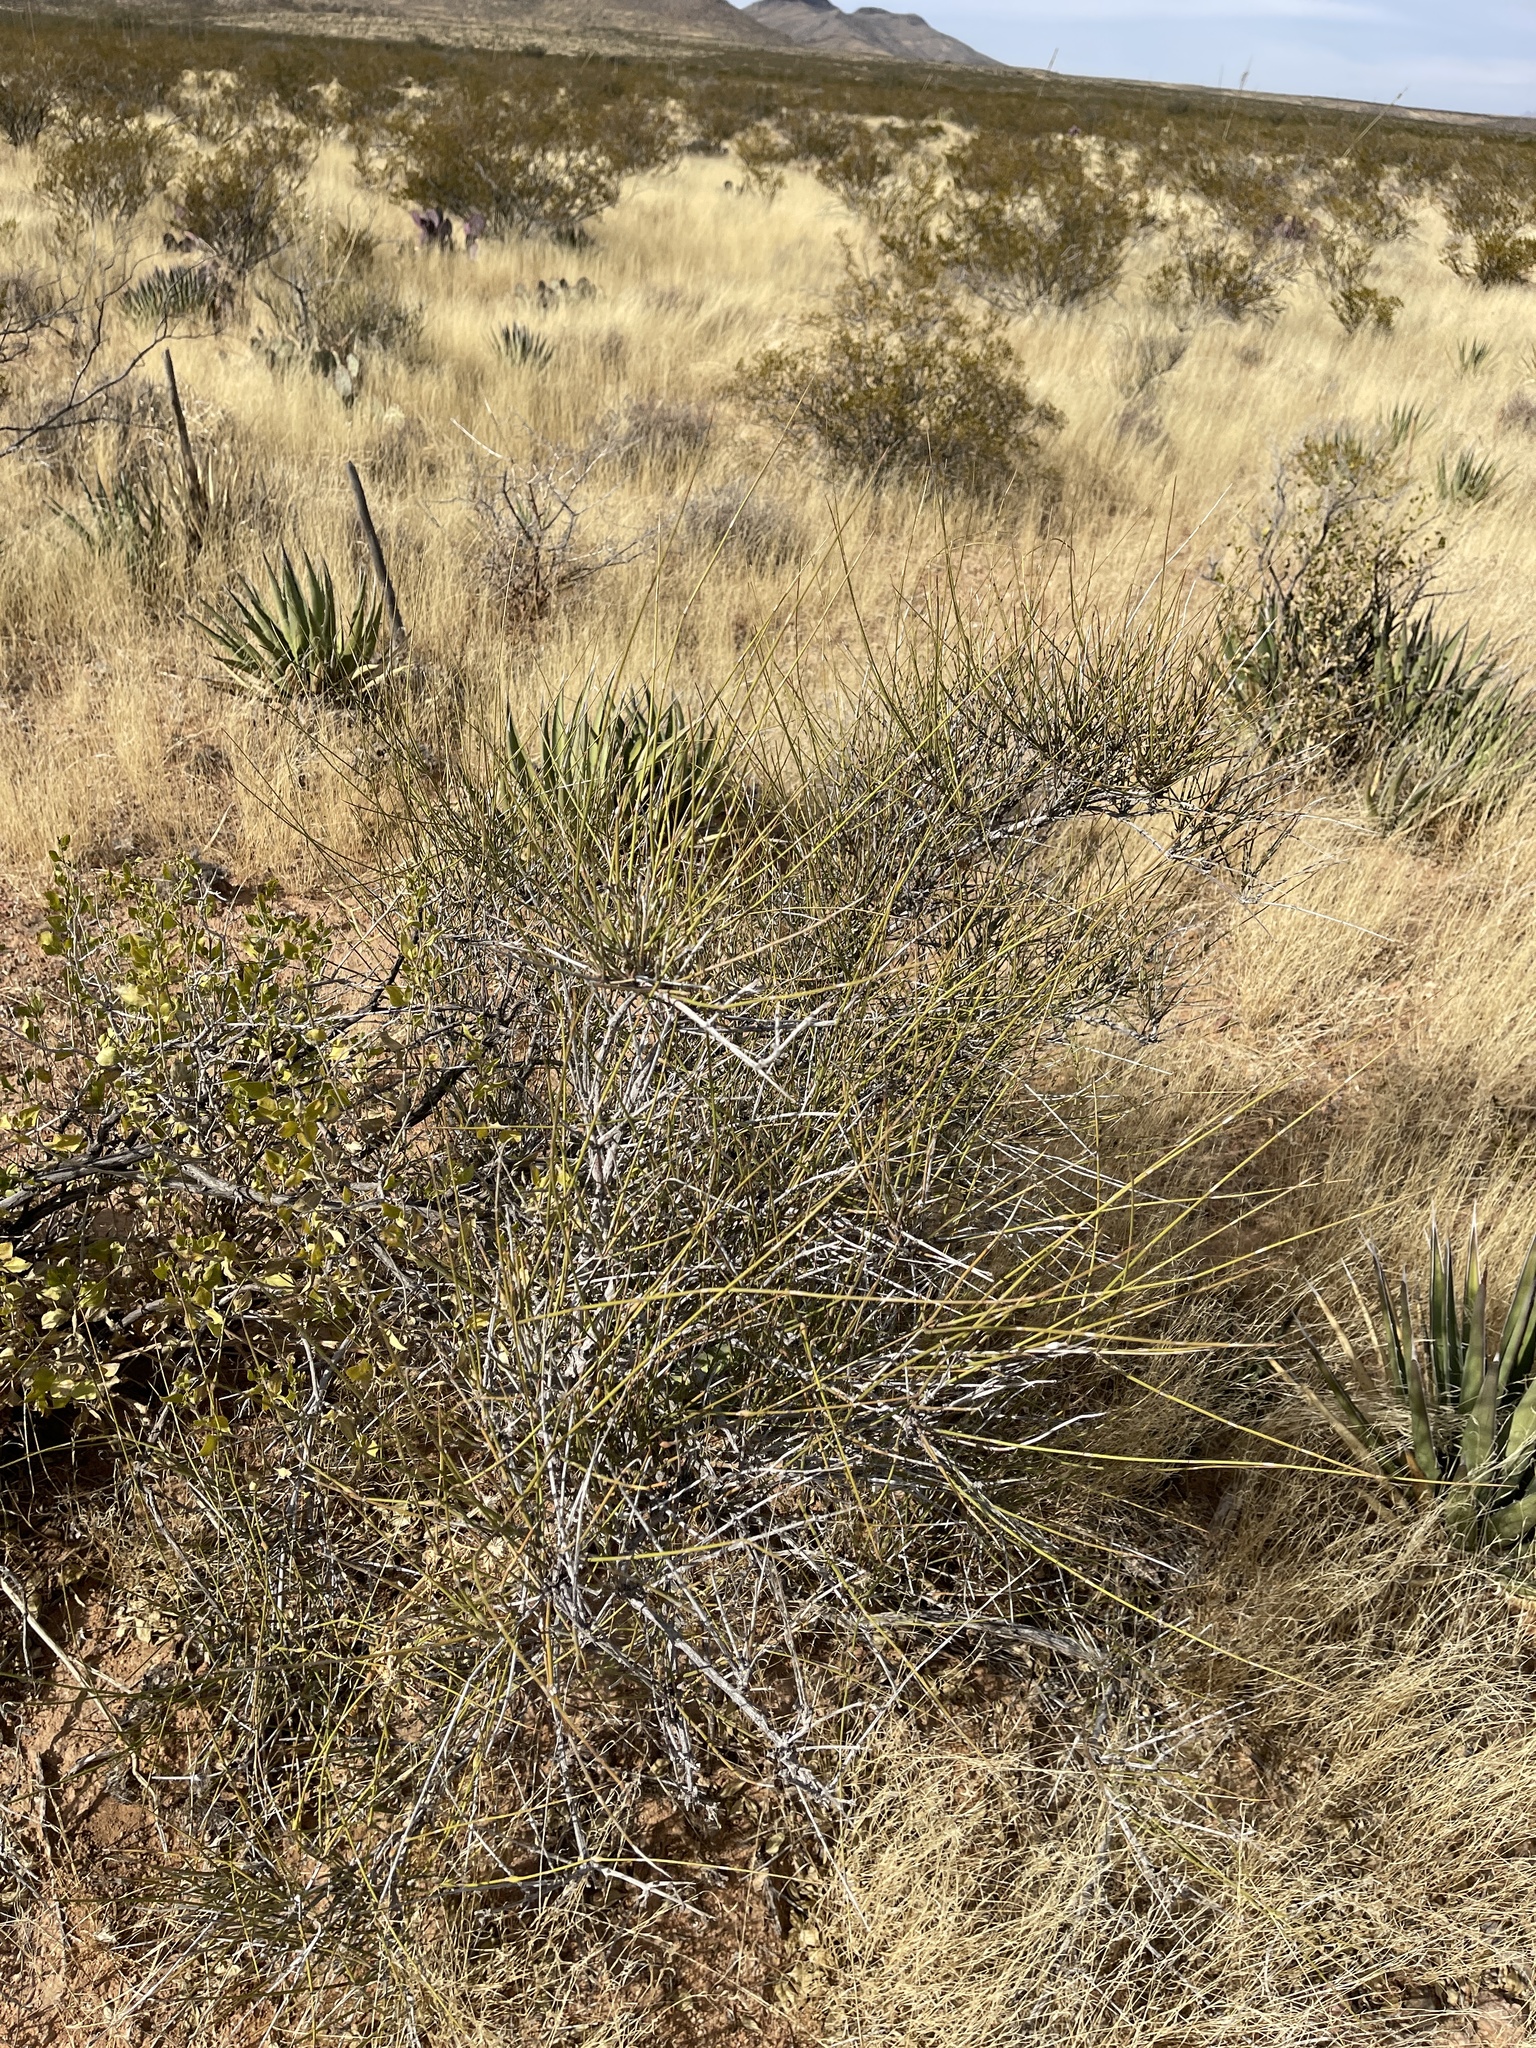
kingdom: Plantae
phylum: Tracheophyta
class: Gnetopsida
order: Ephedrales
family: Ephedraceae
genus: Ephedra
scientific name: Ephedra trifurca
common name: Mexican-tea
